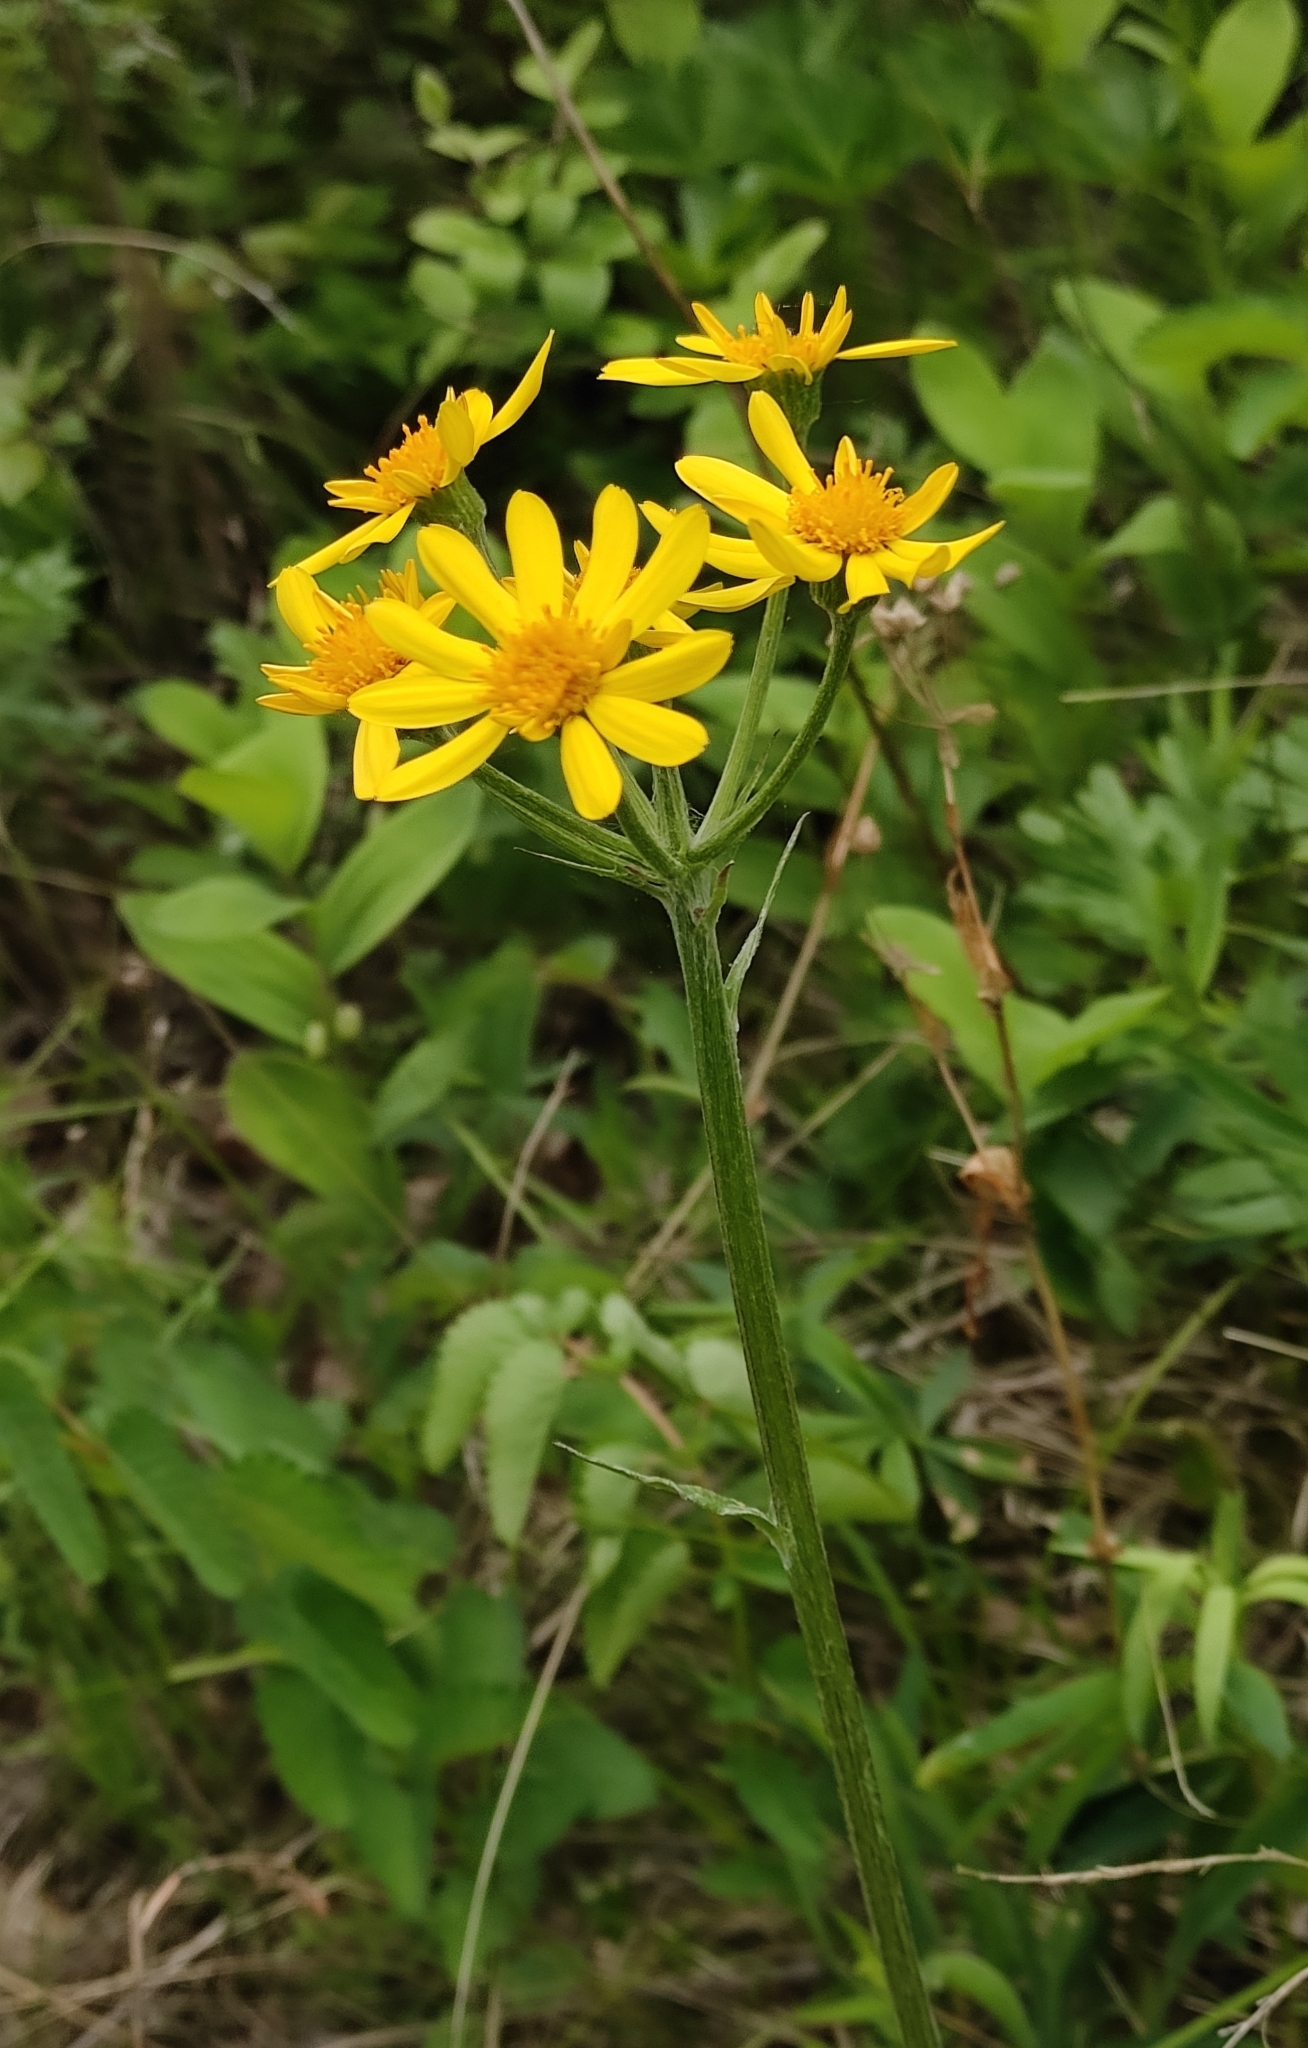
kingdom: Plantae
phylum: Tracheophyta
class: Magnoliopsida
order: Asterales
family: Asteraceae
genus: Tephroseris
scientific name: Tephroseris integrifolia
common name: Field fleawort
